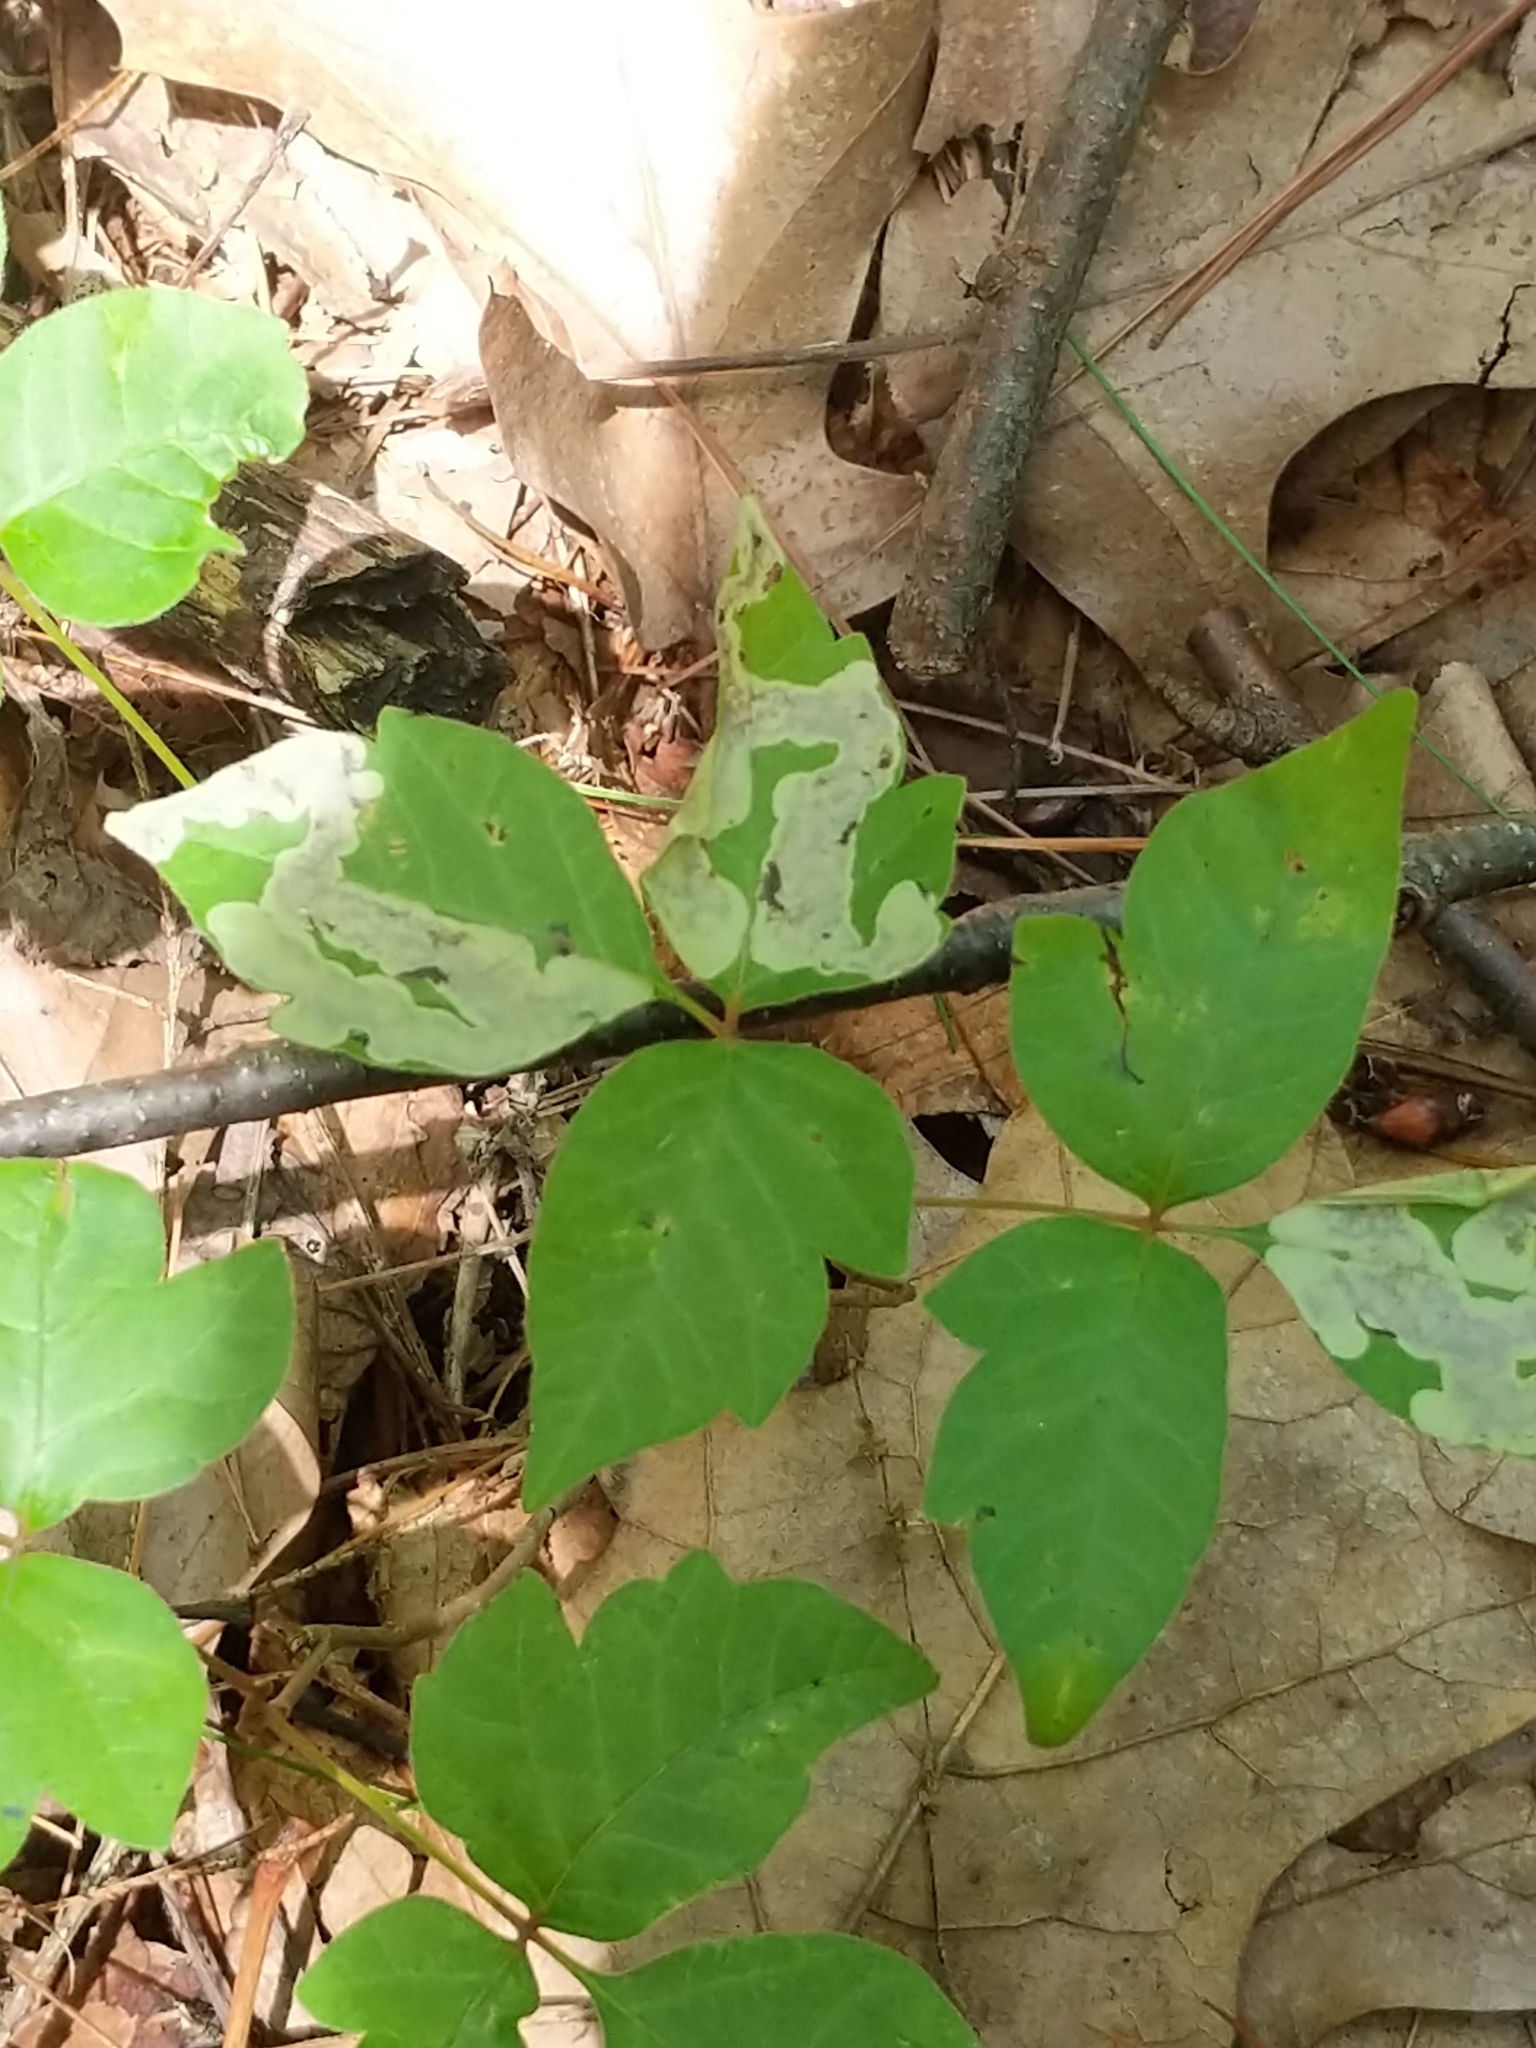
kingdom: Animalia
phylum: Arthropoda
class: Insecta
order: Lepidoptera
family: Gracillariidae
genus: Cameraria
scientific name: Cameraria guttifinitella
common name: Poison ivy leaf-miner moth
